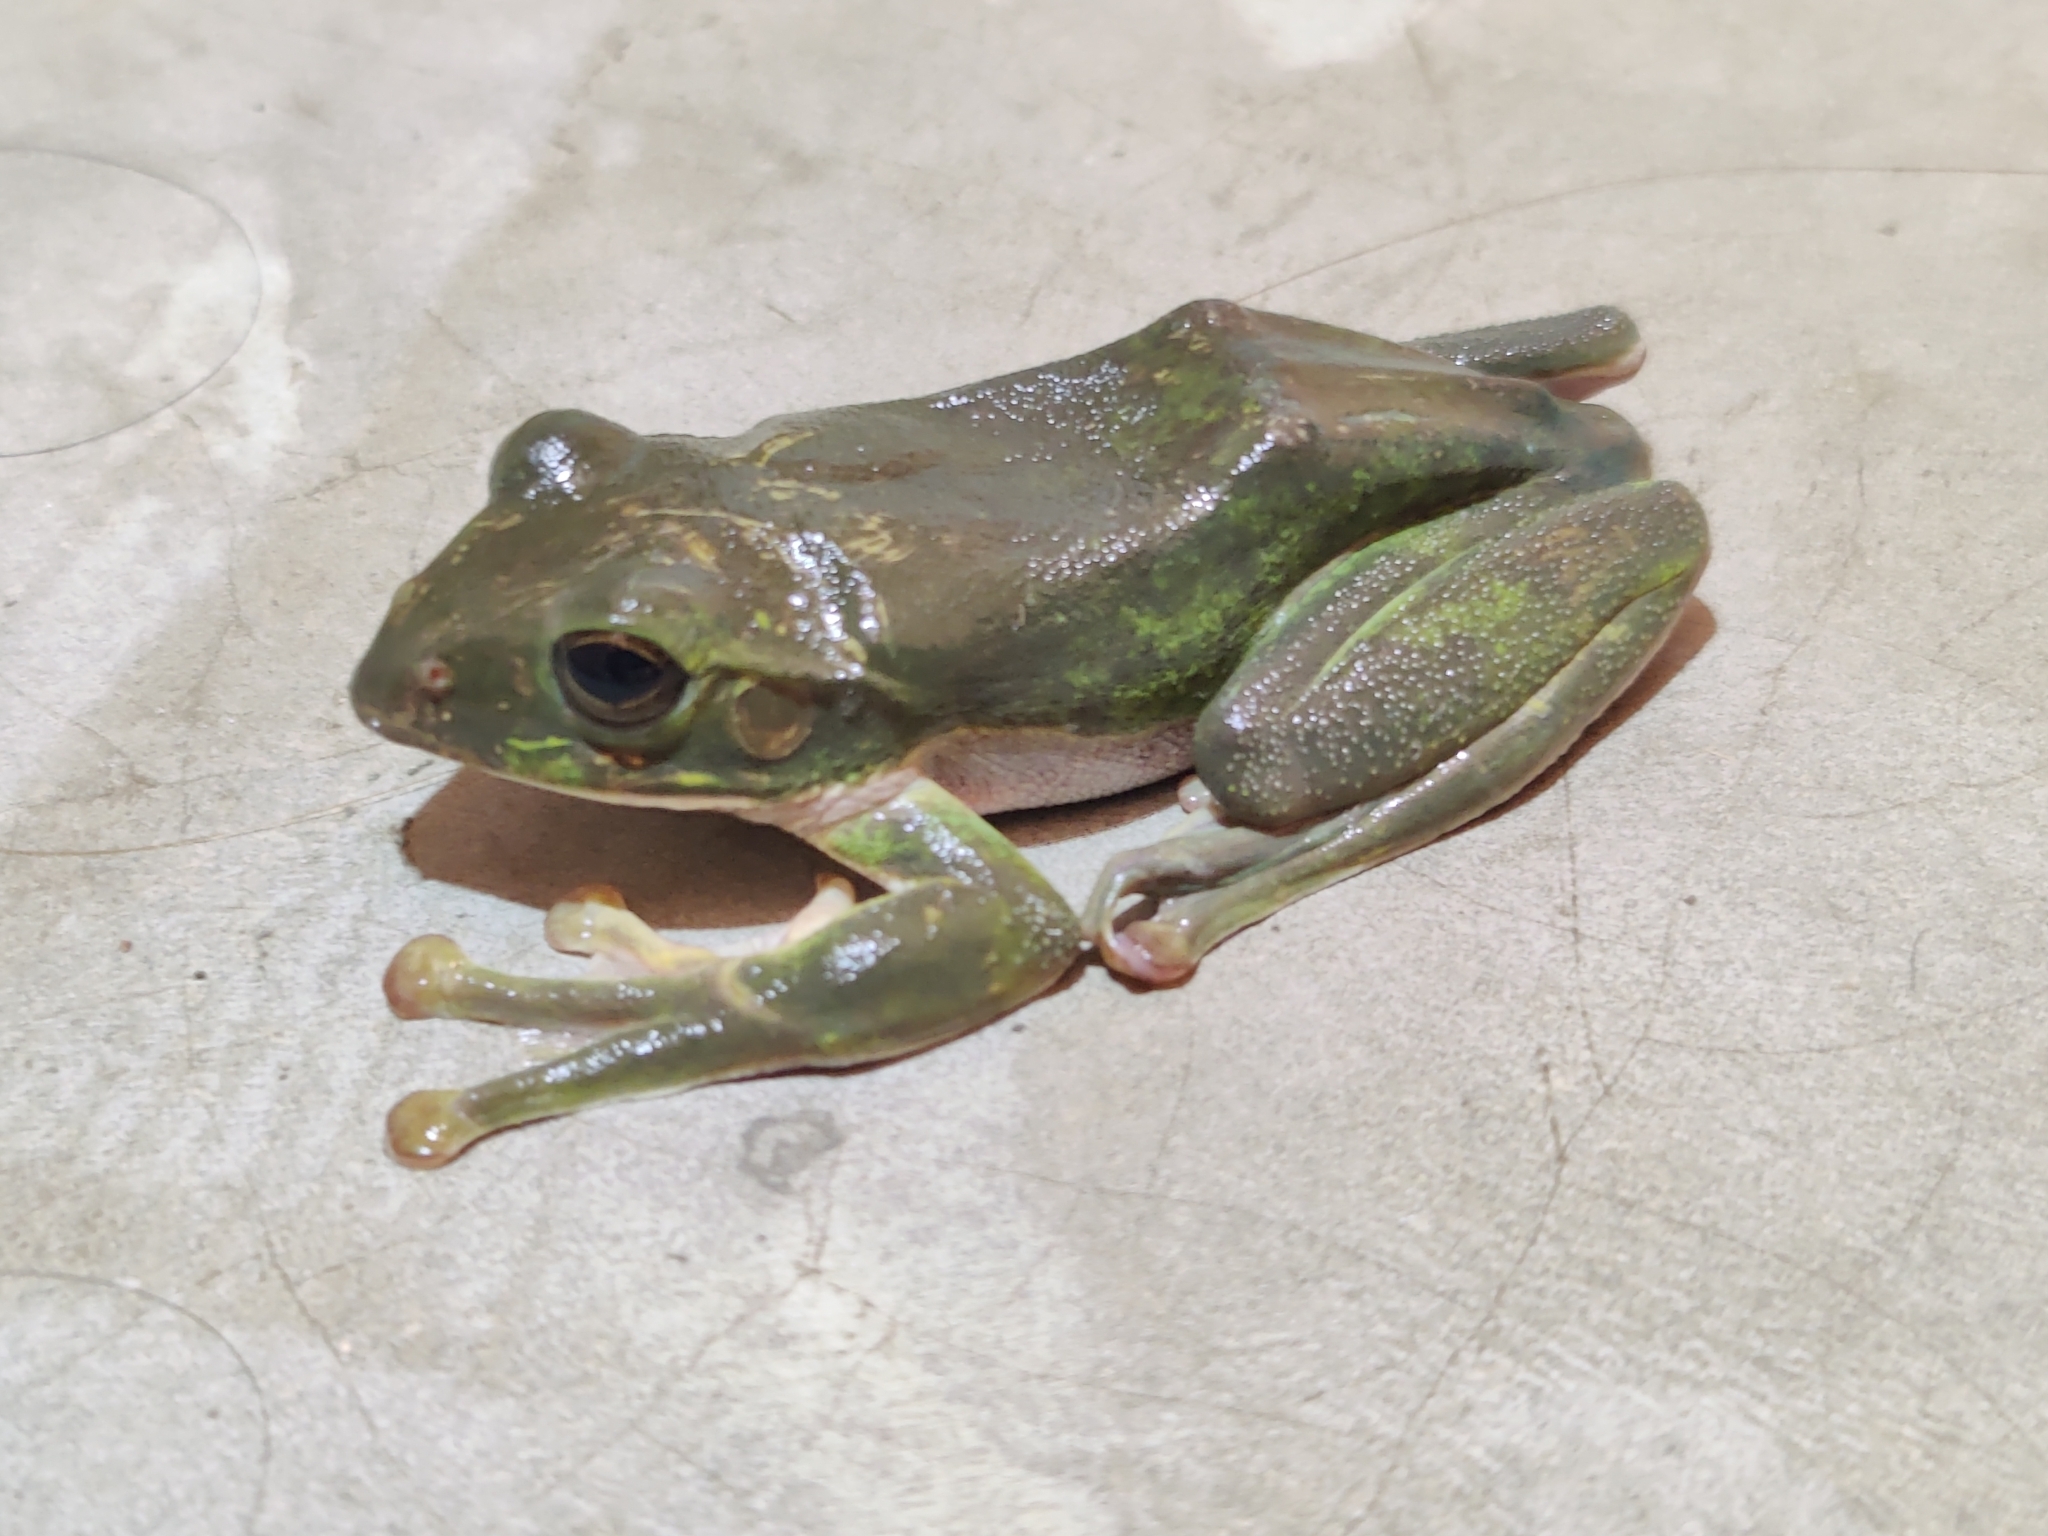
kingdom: Animalia
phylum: Chordata
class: Amphibia
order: Anura
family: Rhacophoridae
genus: Zhangixalus
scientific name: Zhangixalus smaragdinus
